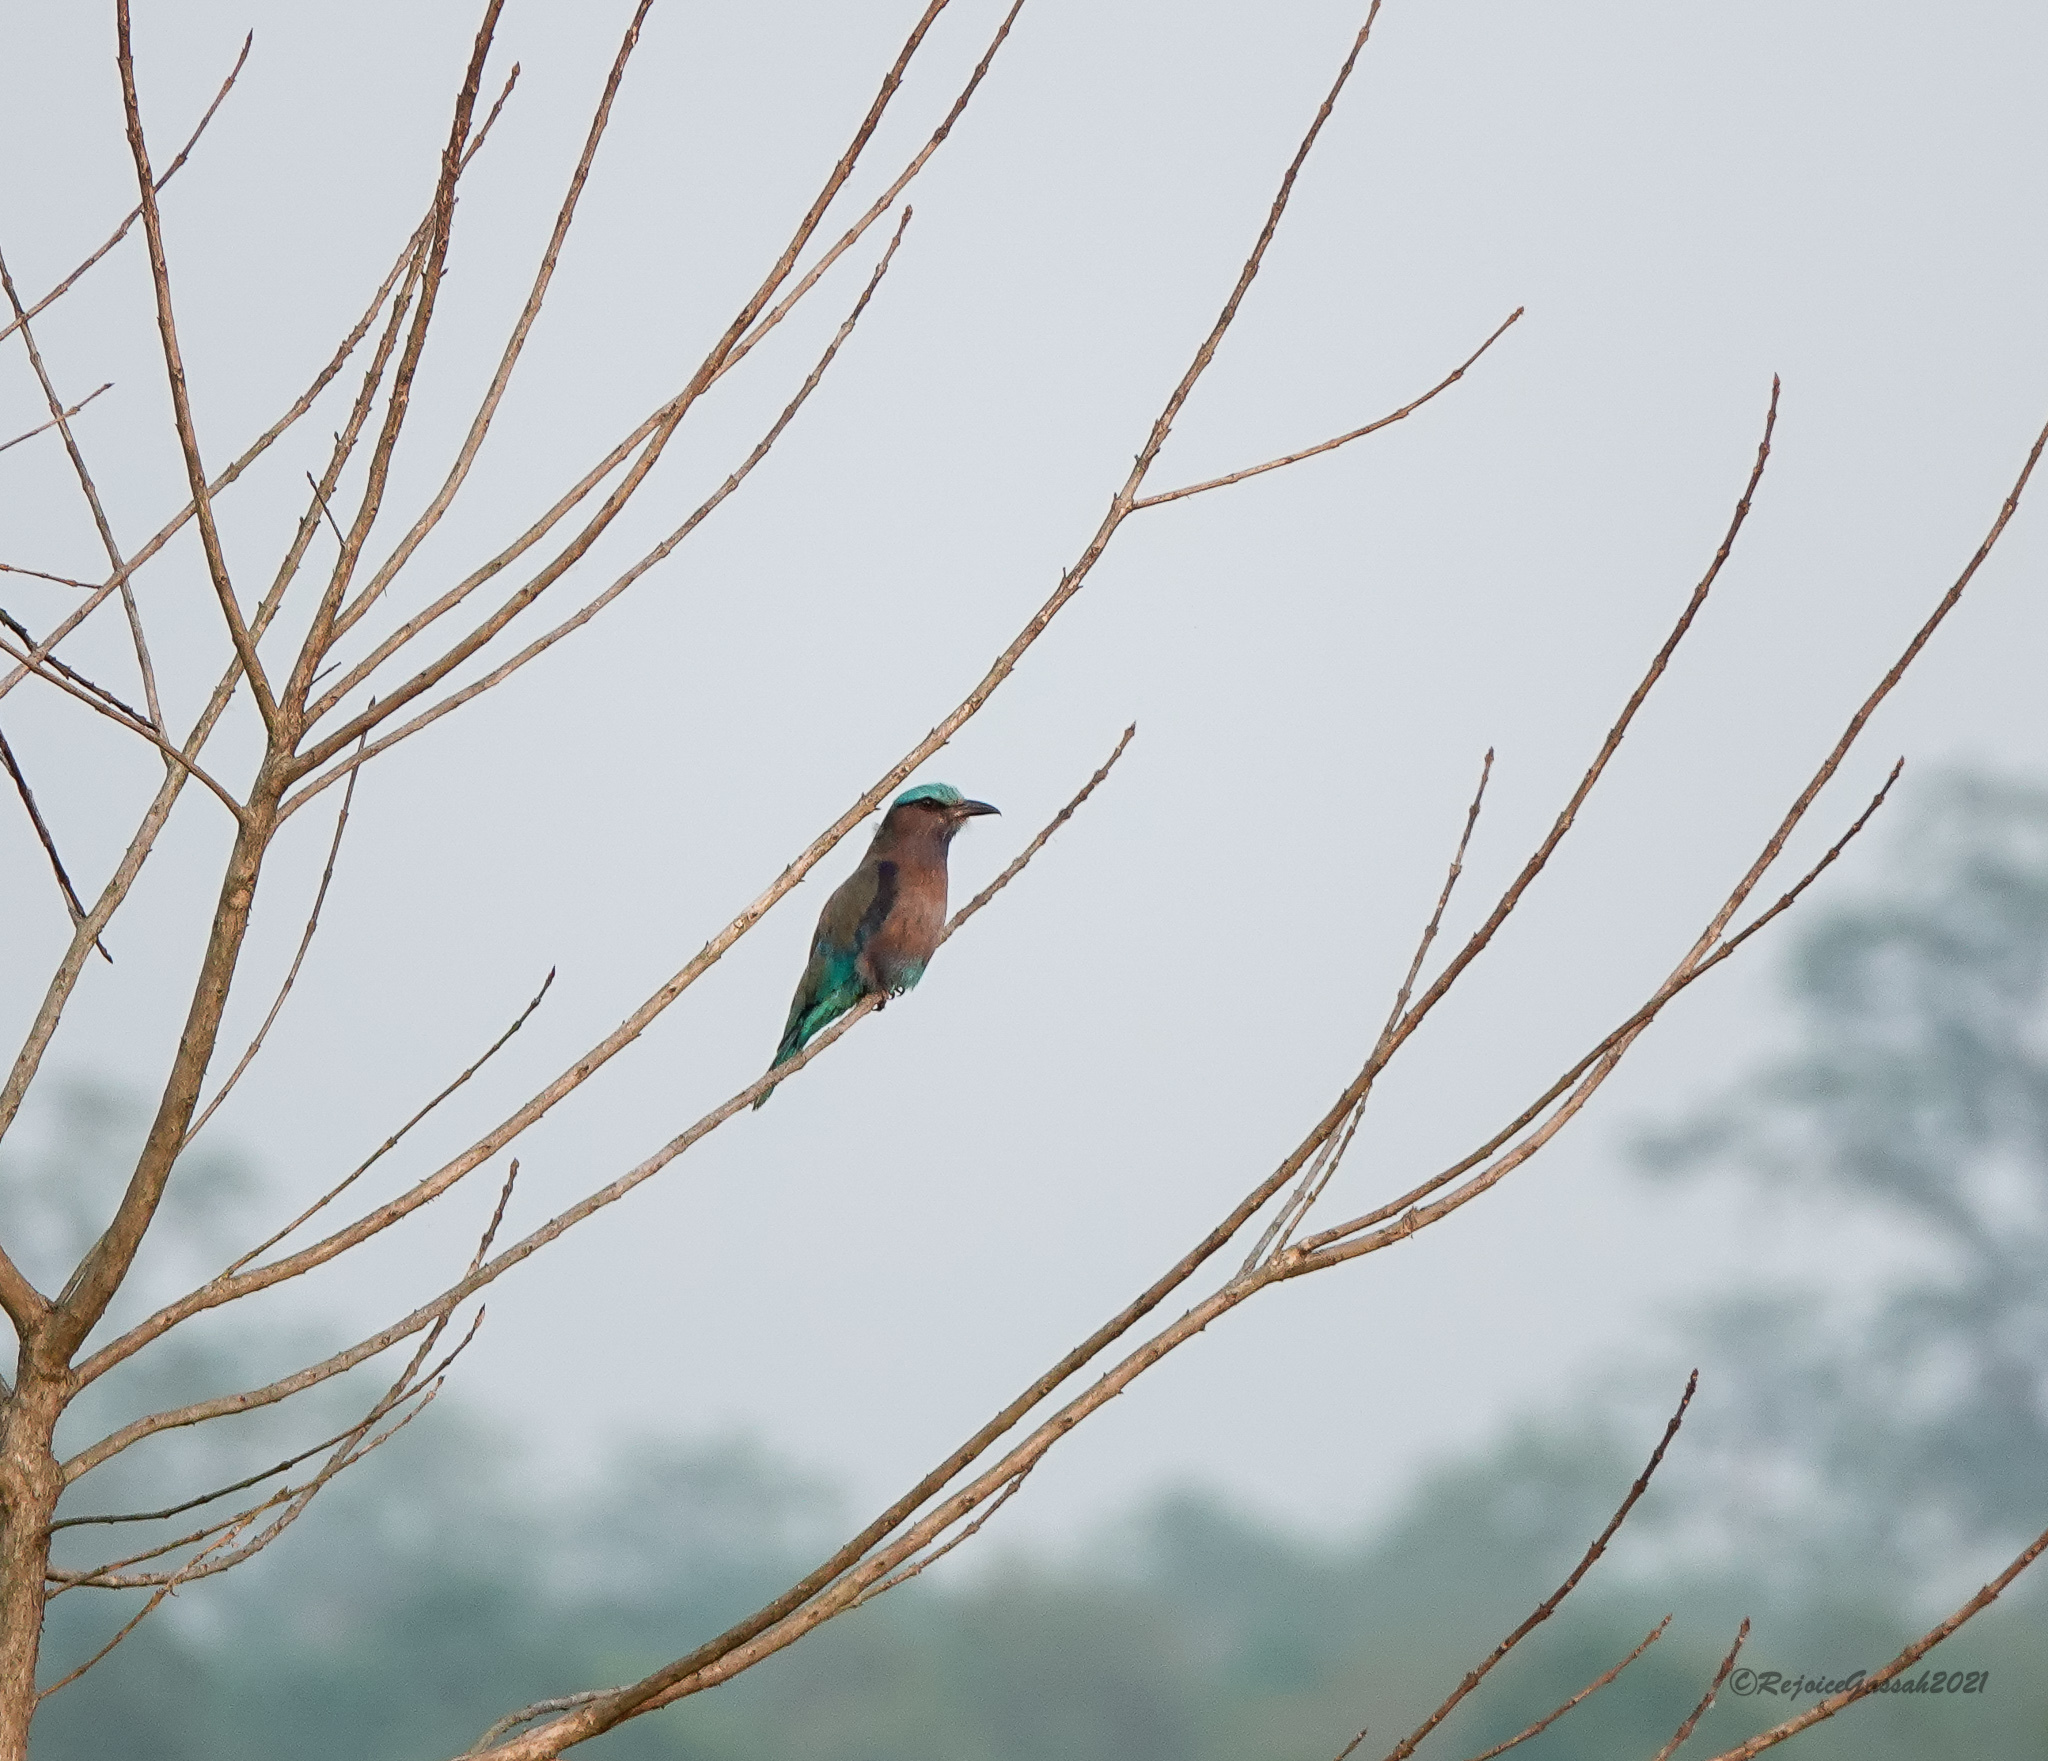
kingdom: Animalia
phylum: Chordata
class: Aves
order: Coraciiformes
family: Coraciidae
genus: Coracias
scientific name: Coracias affinis
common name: Indochinese roller
